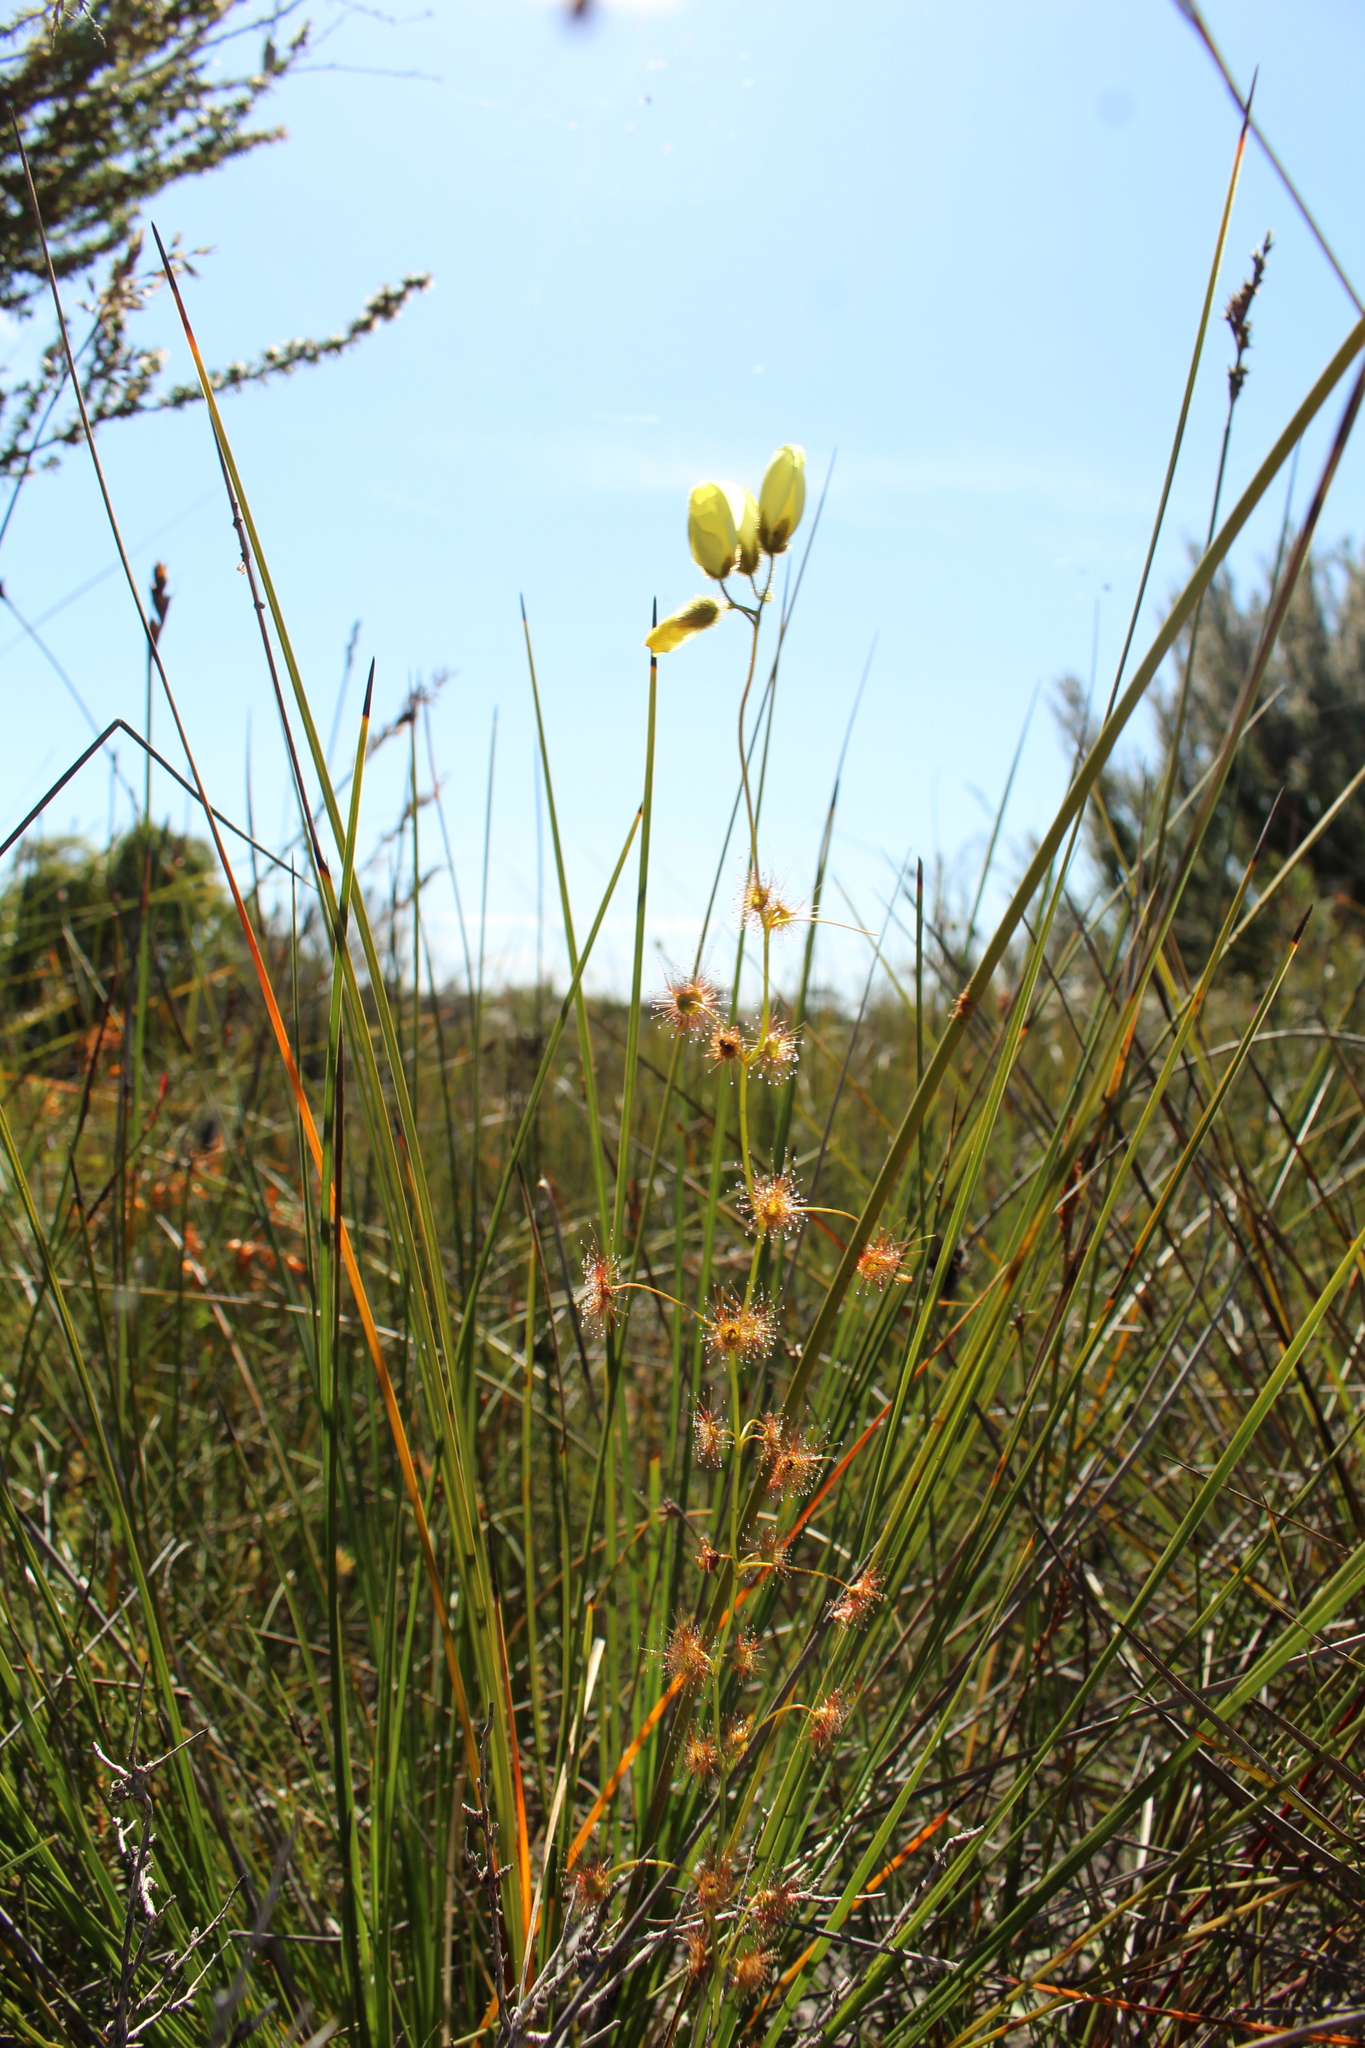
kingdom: Plantae
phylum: Tracheophyta
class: Magnoliopsida
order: Caryophyllales
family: Droseraceae
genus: Drosera
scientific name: Drosera sulphurea
